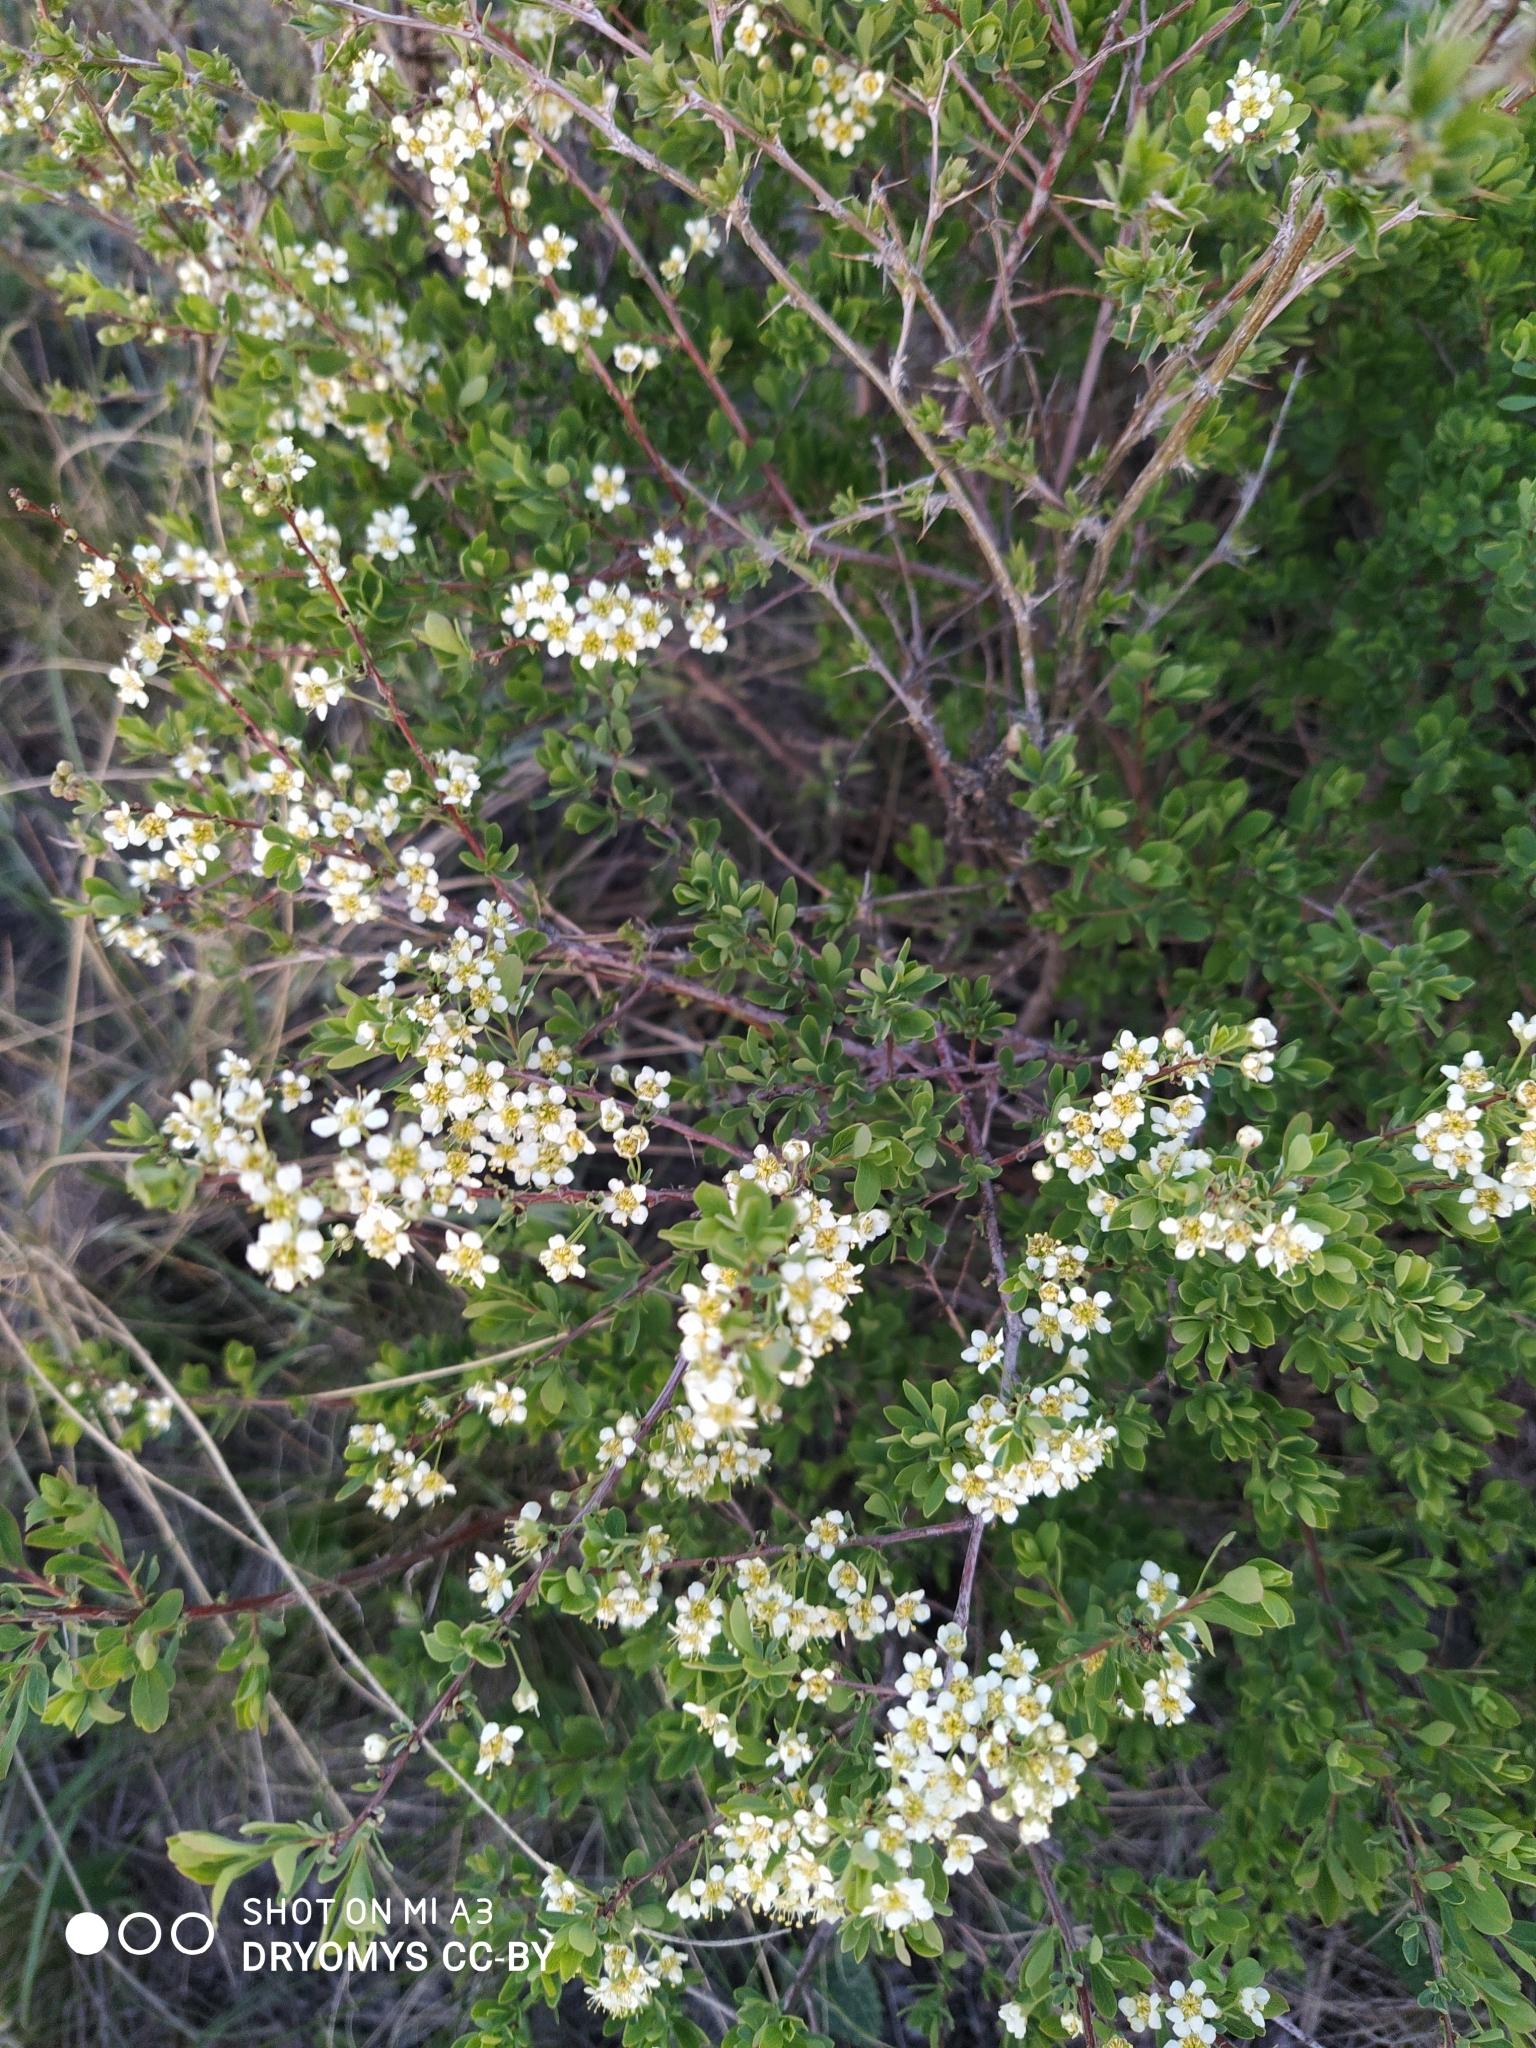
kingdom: Plantae
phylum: Tracheophyta
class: Magnoliopsida
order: Rosales
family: Rosaceae
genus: Spiraea
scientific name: Spiraea hypericifolia
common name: Iberian spirea
